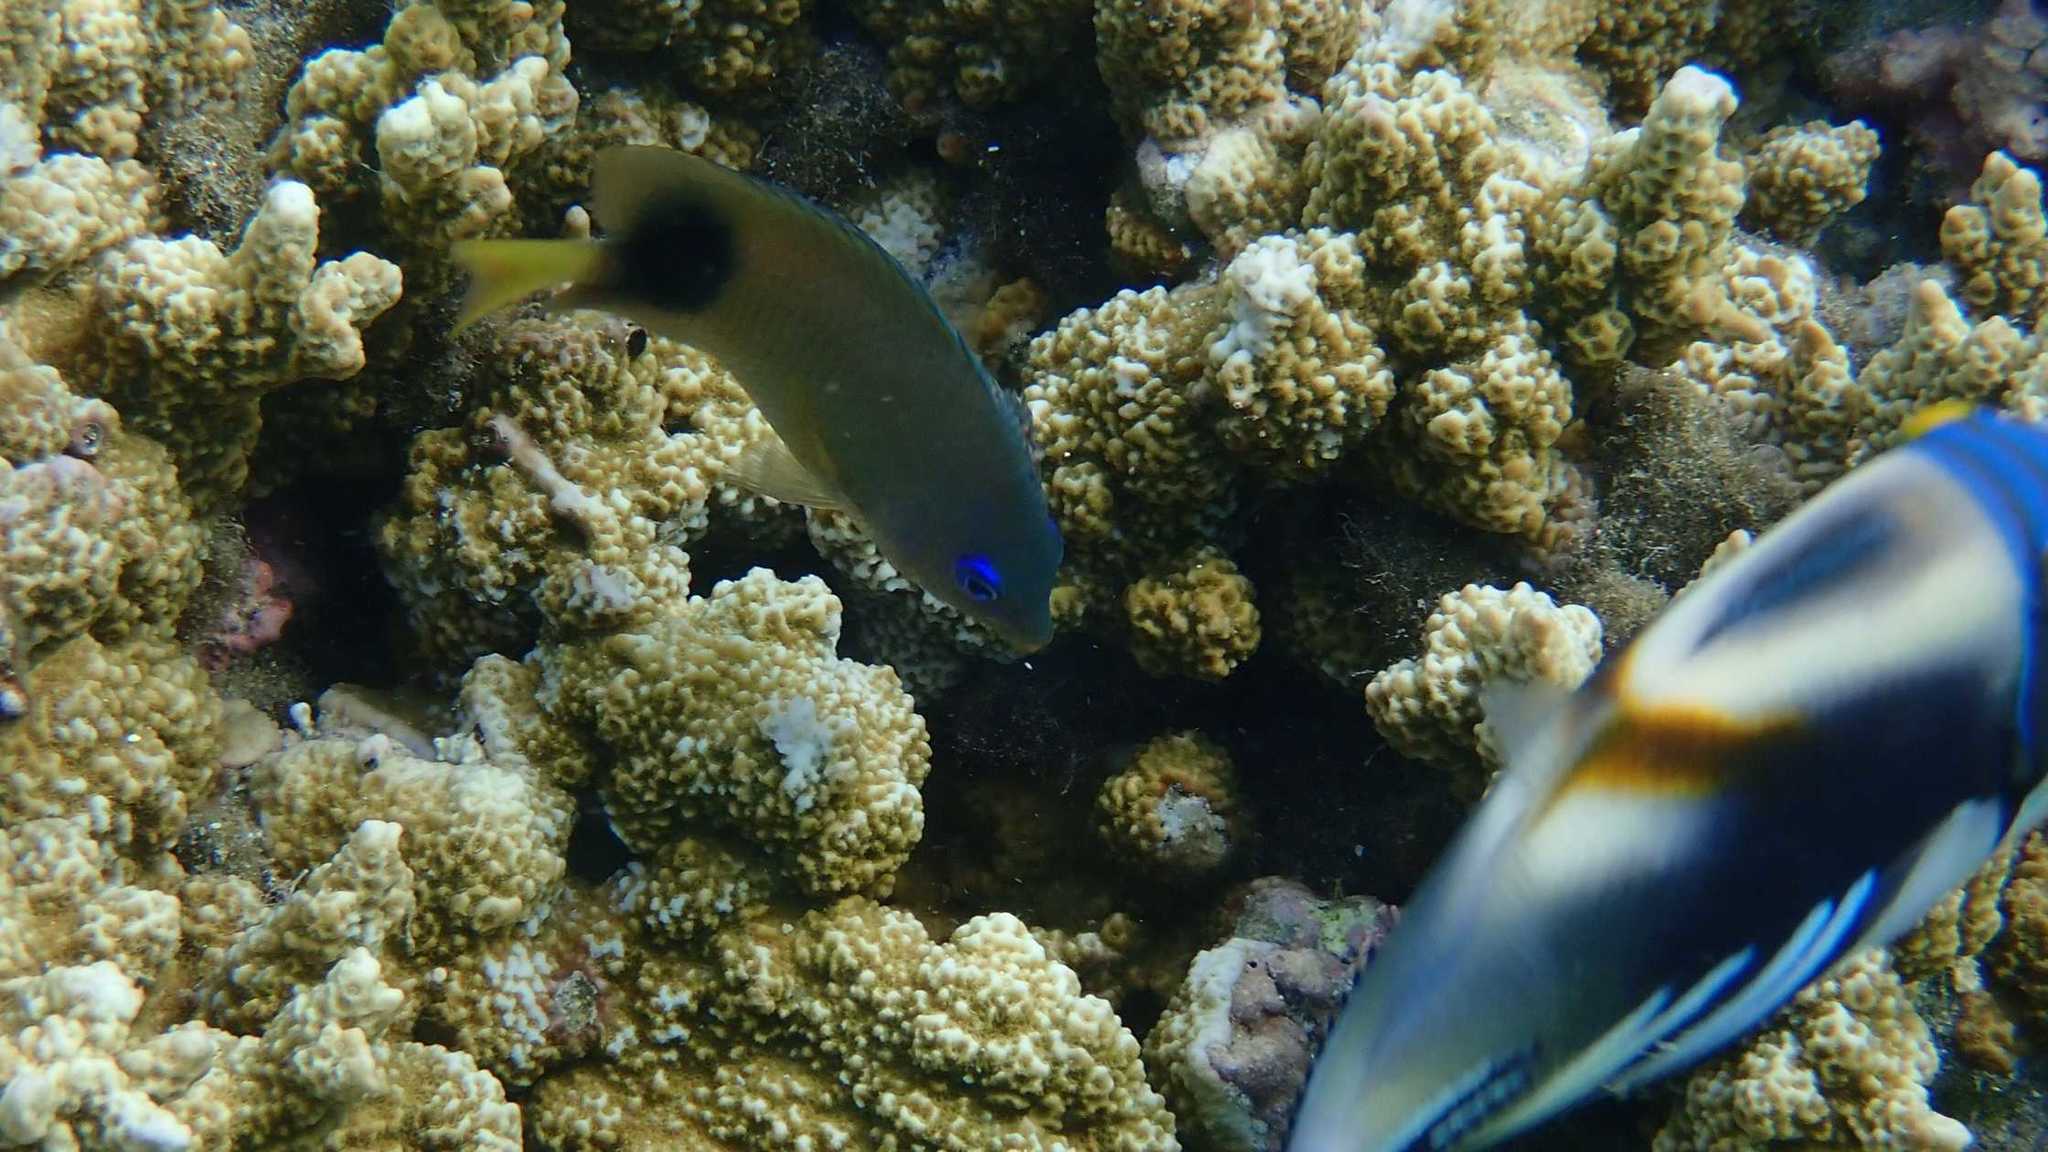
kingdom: Animalia
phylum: Chordata
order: Perciformes
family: Pomacentridae
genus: Plectroglyphidodon
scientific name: Plectroglyphidodon johnstonianus
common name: Johnston damsel
